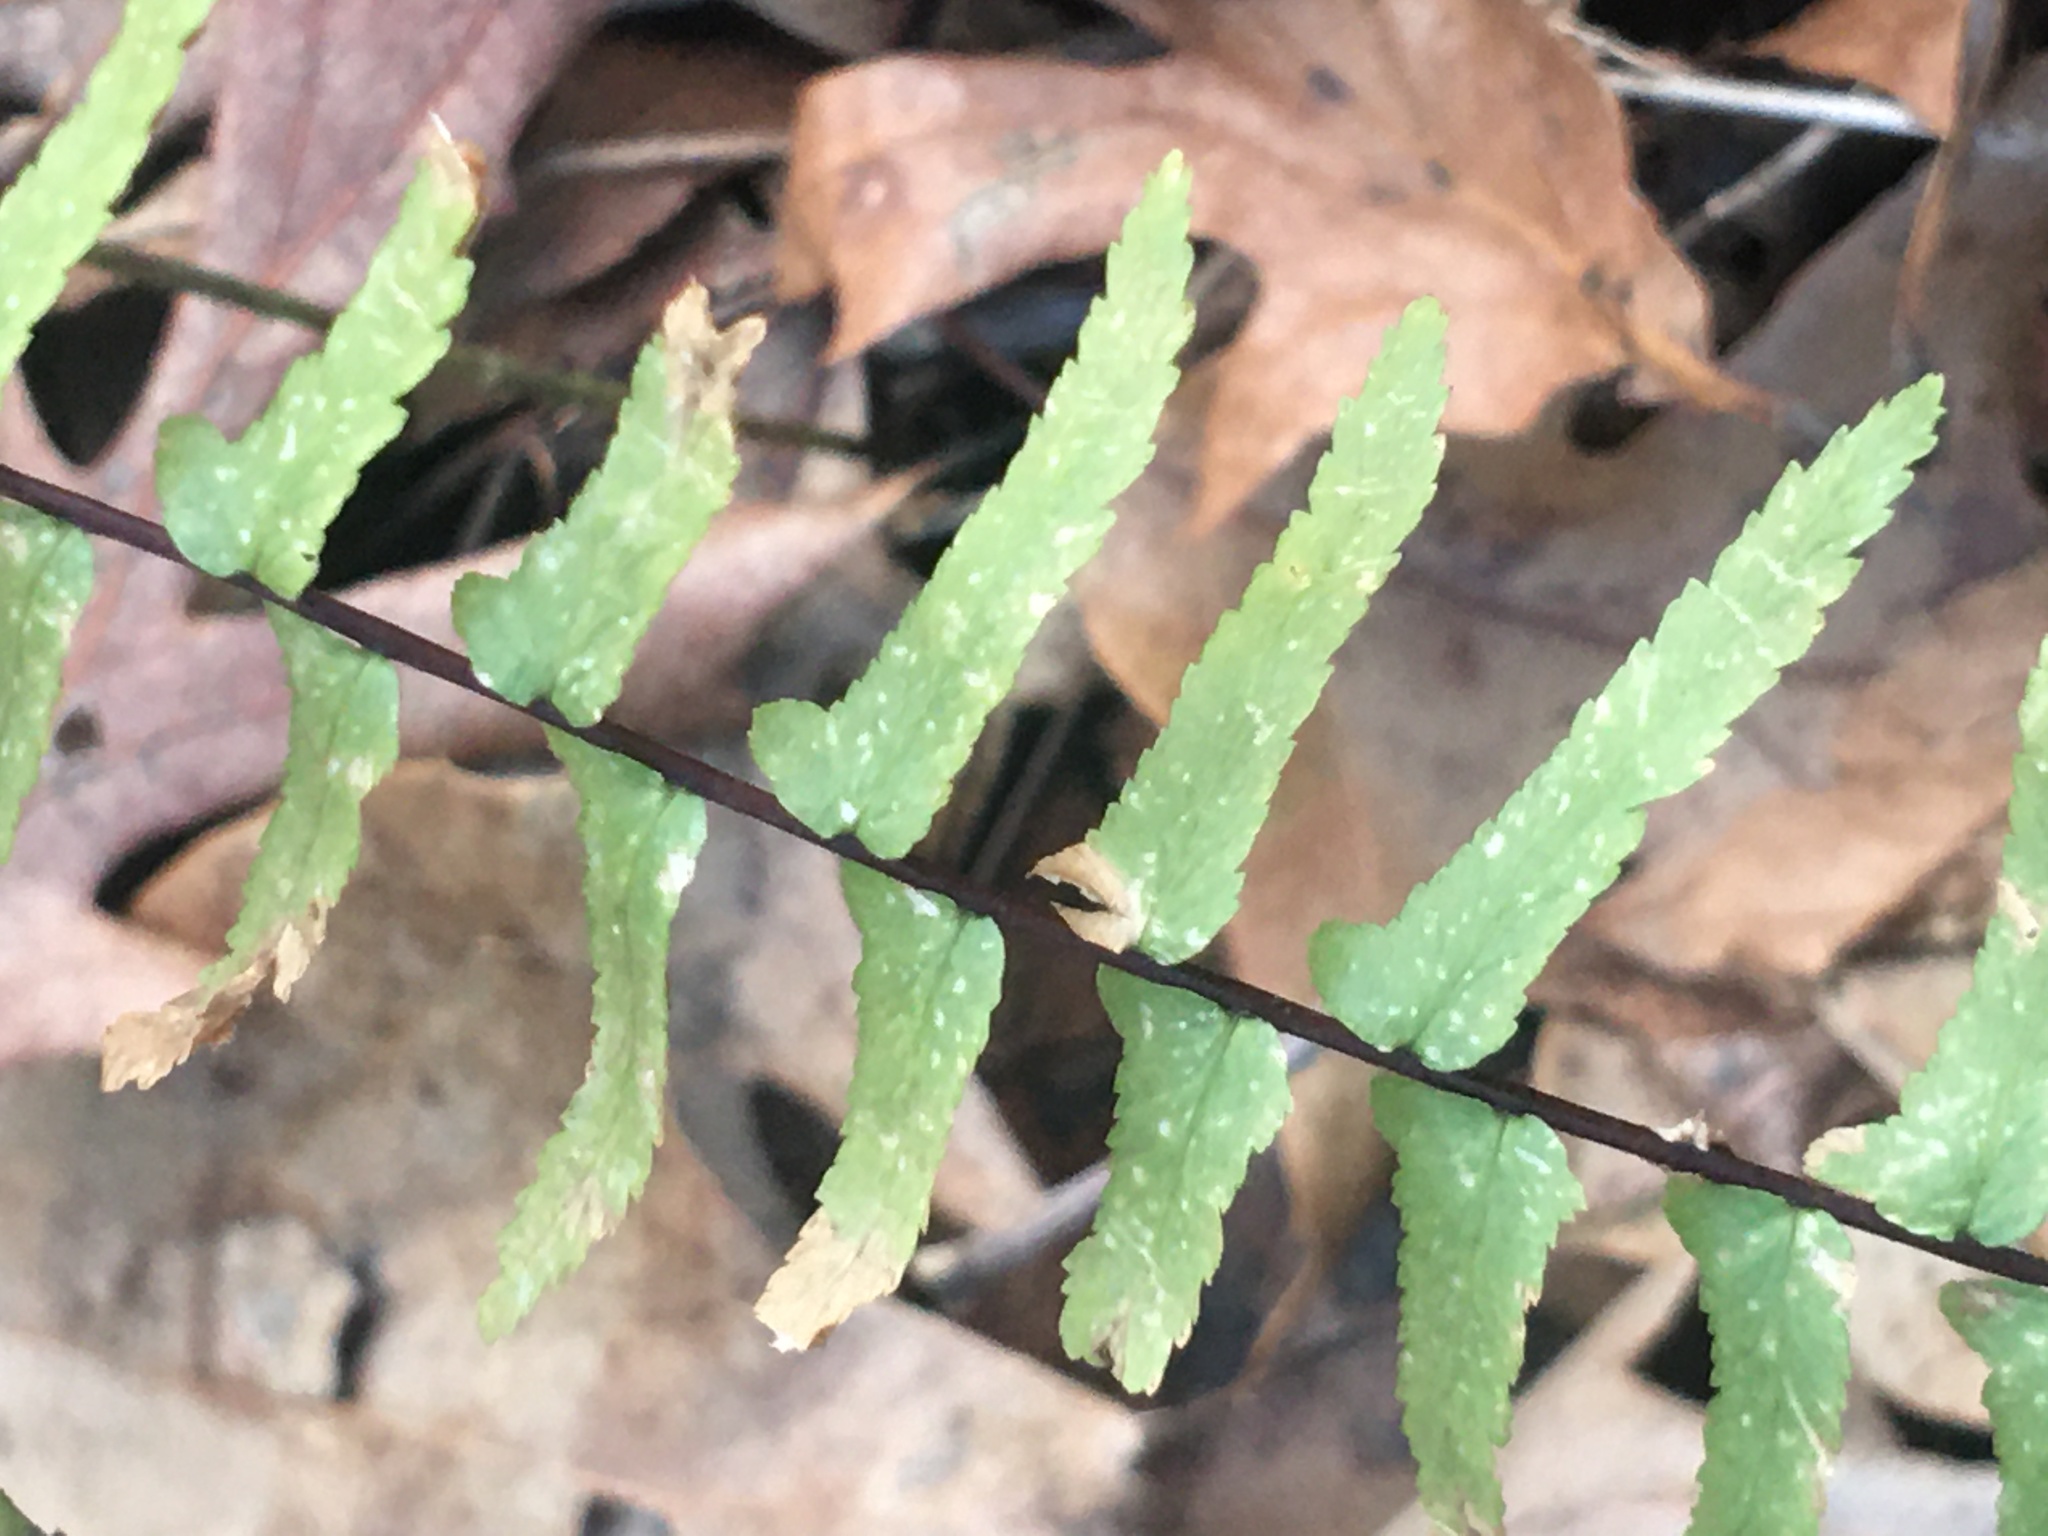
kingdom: Plantae
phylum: Tracheophyta
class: Polypodiopsida
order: Polypodiales
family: Aspleniaceae
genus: Asplenium
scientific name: Asplenium platyneuron
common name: Ebony spleenwort
